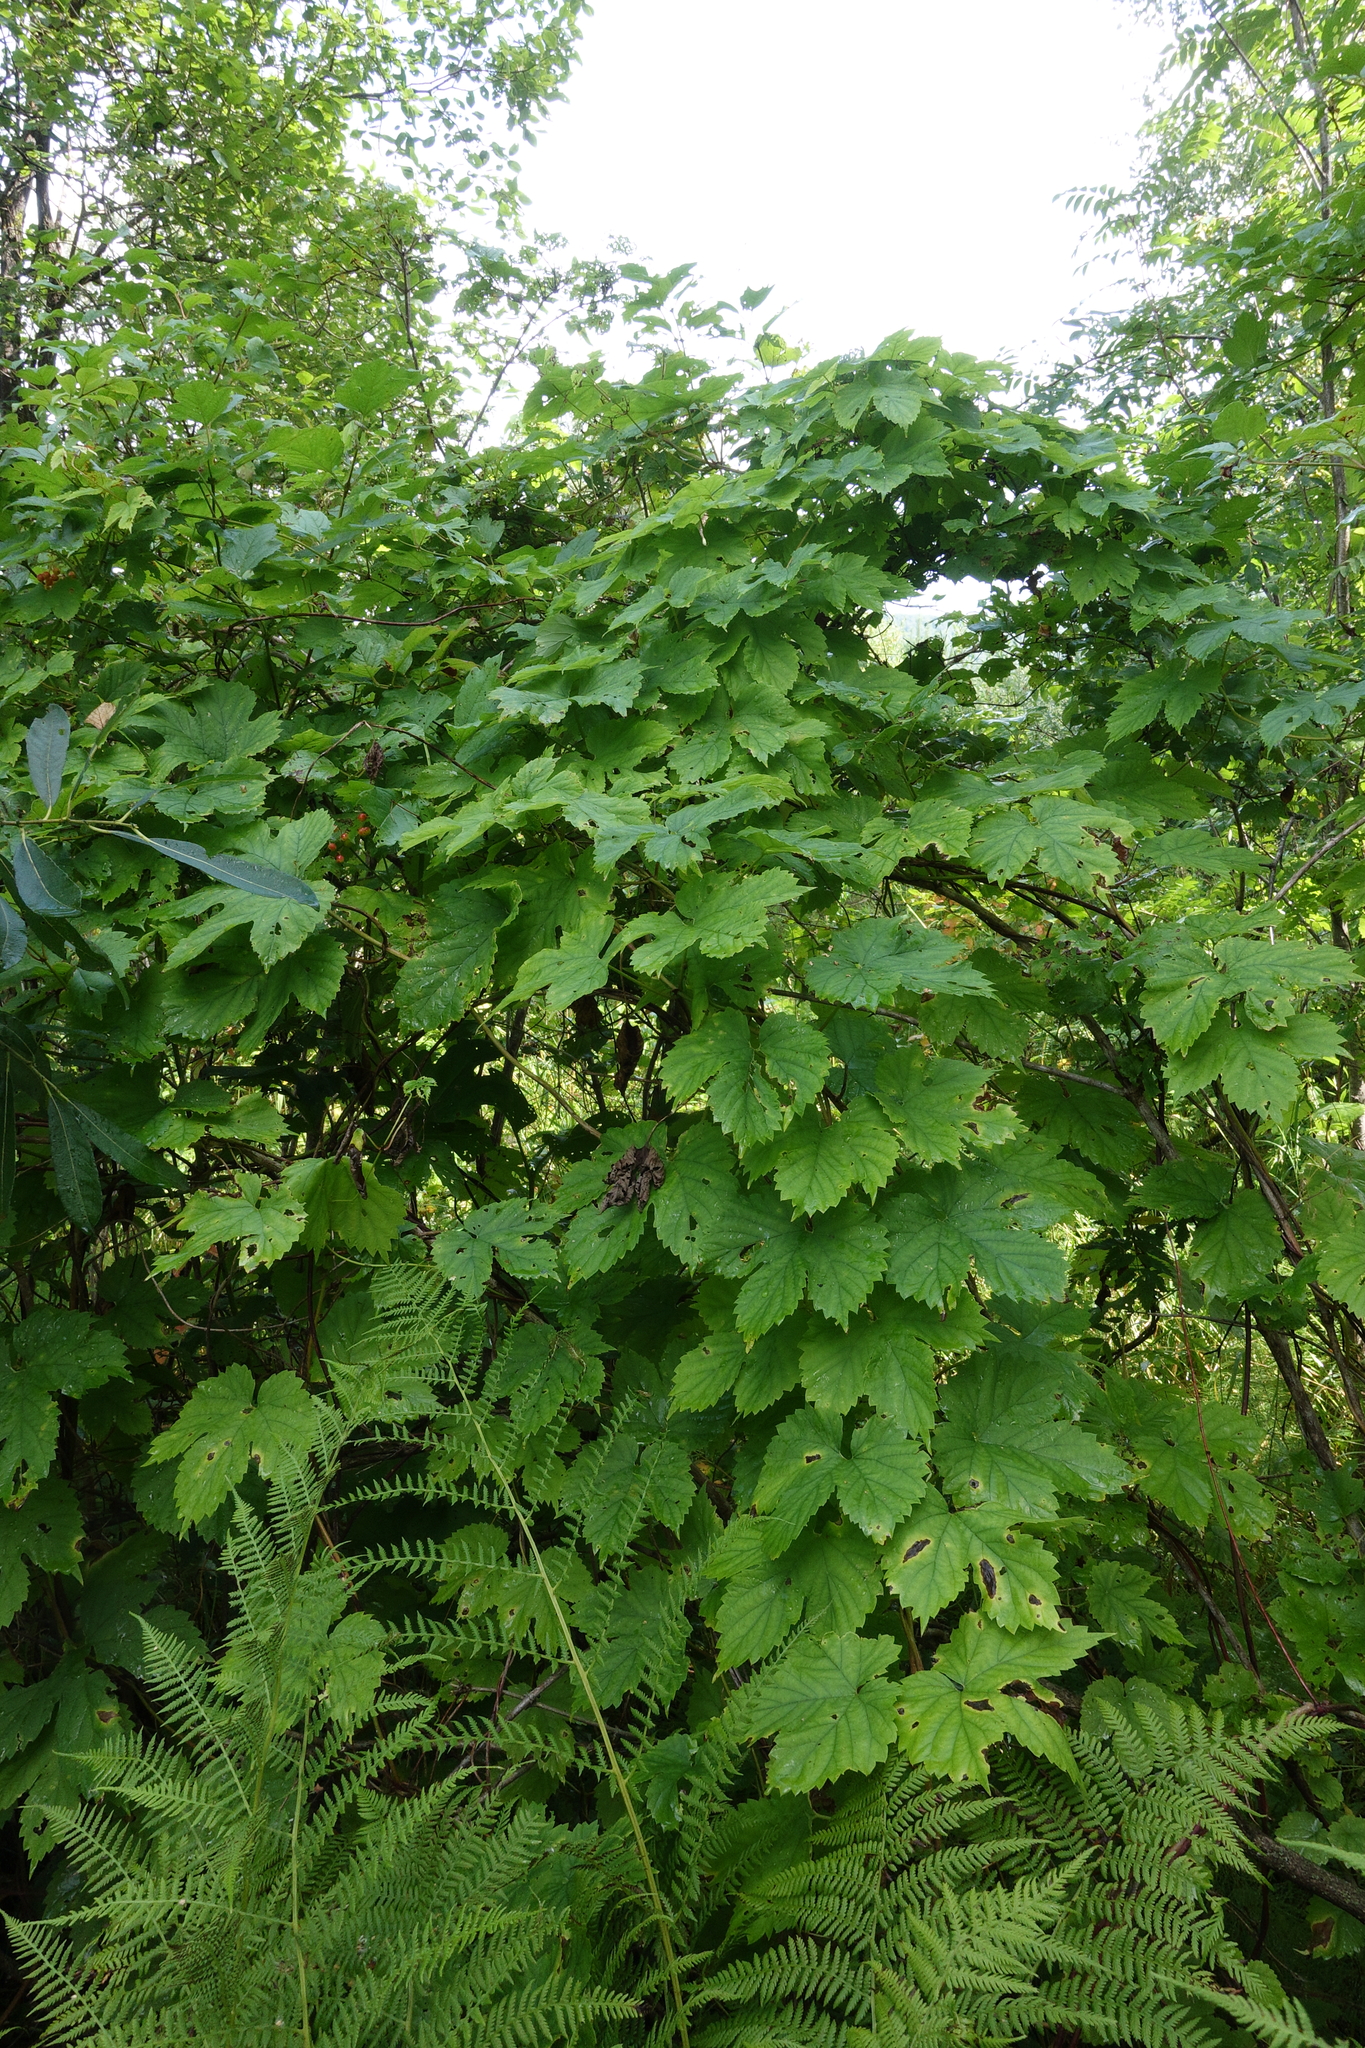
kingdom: Plantae
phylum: Tracheophyta
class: Magnoliopsida
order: Rosales
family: Cannabaceae
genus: Humulus
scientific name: Humulus lupulus
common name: Hop
